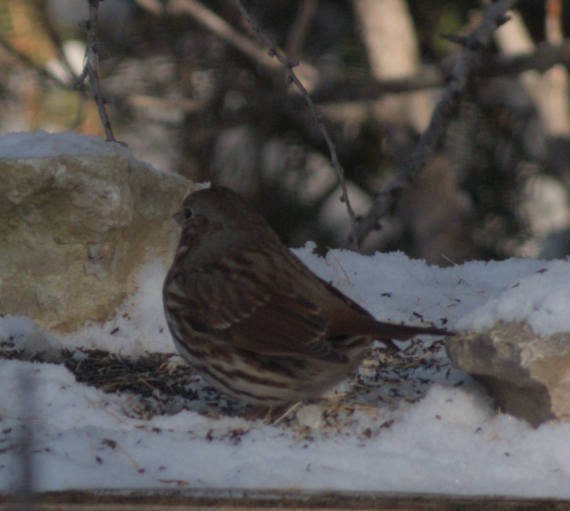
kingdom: Animalia
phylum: Chordata
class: Aves
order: Passeriformes
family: Passerellidae
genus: Passerella
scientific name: Passerella iliaca
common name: Fox sparrow
